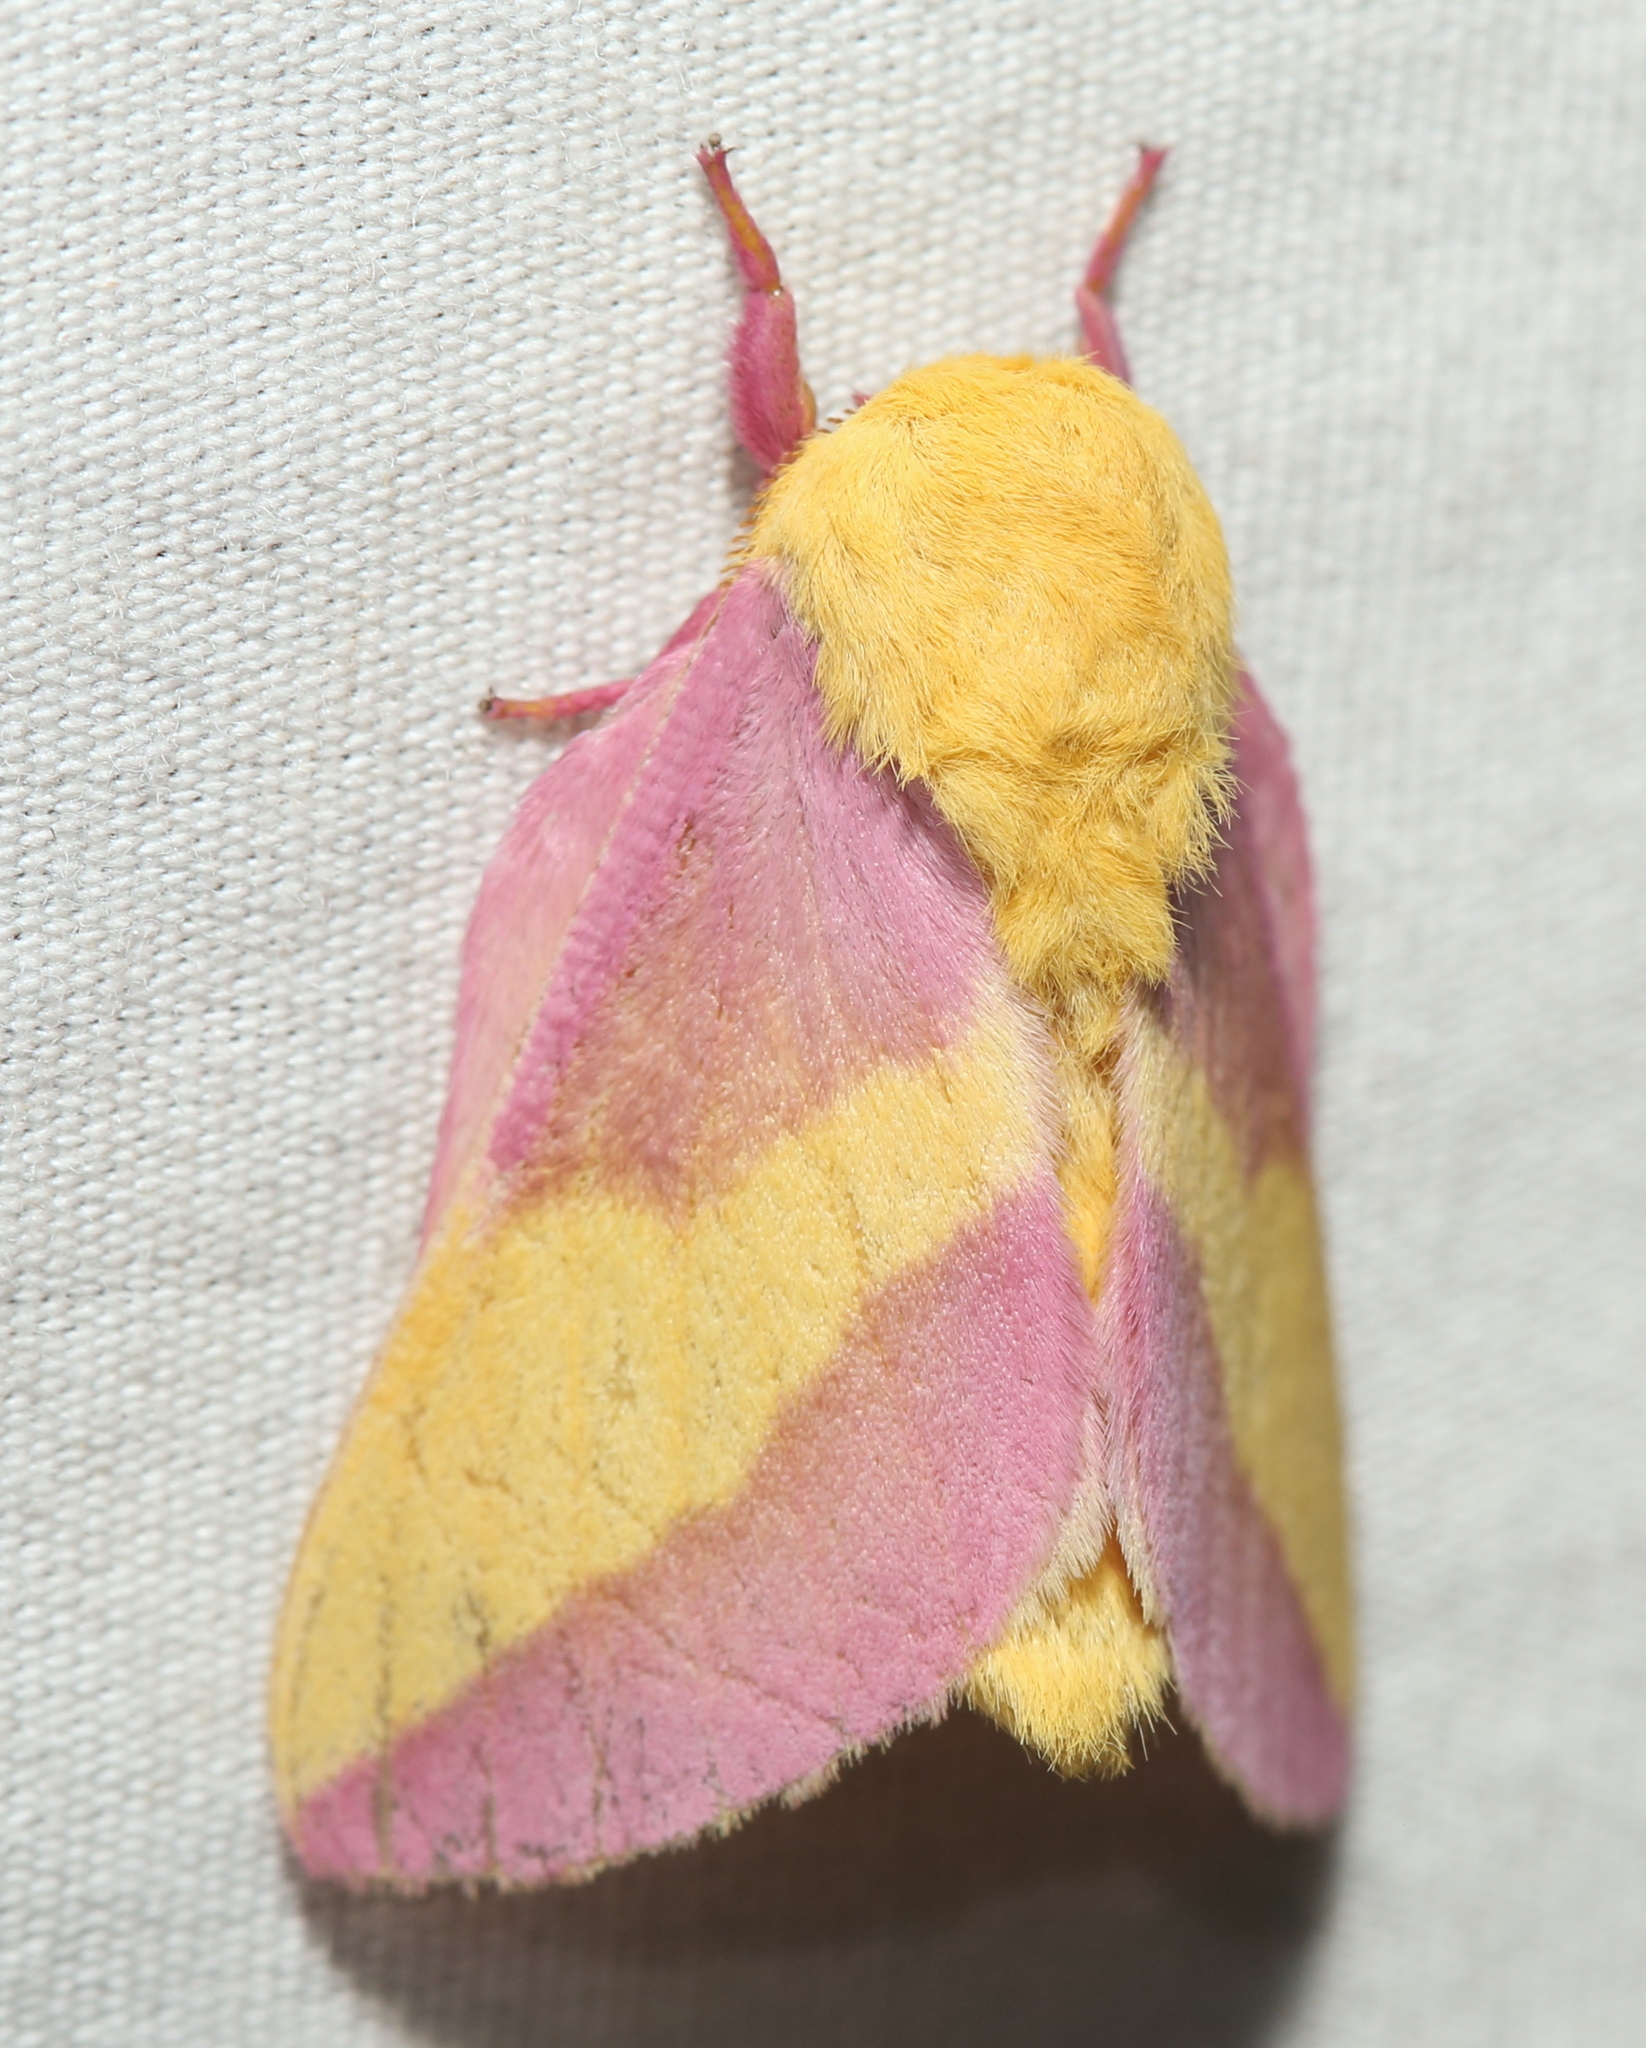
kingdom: Animalia
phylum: Arthropoda
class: Insecta
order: Lepidoptera
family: Saturniidae
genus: Dryocampa
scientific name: Dryocampa rubicunda
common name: Rosy maple moth
